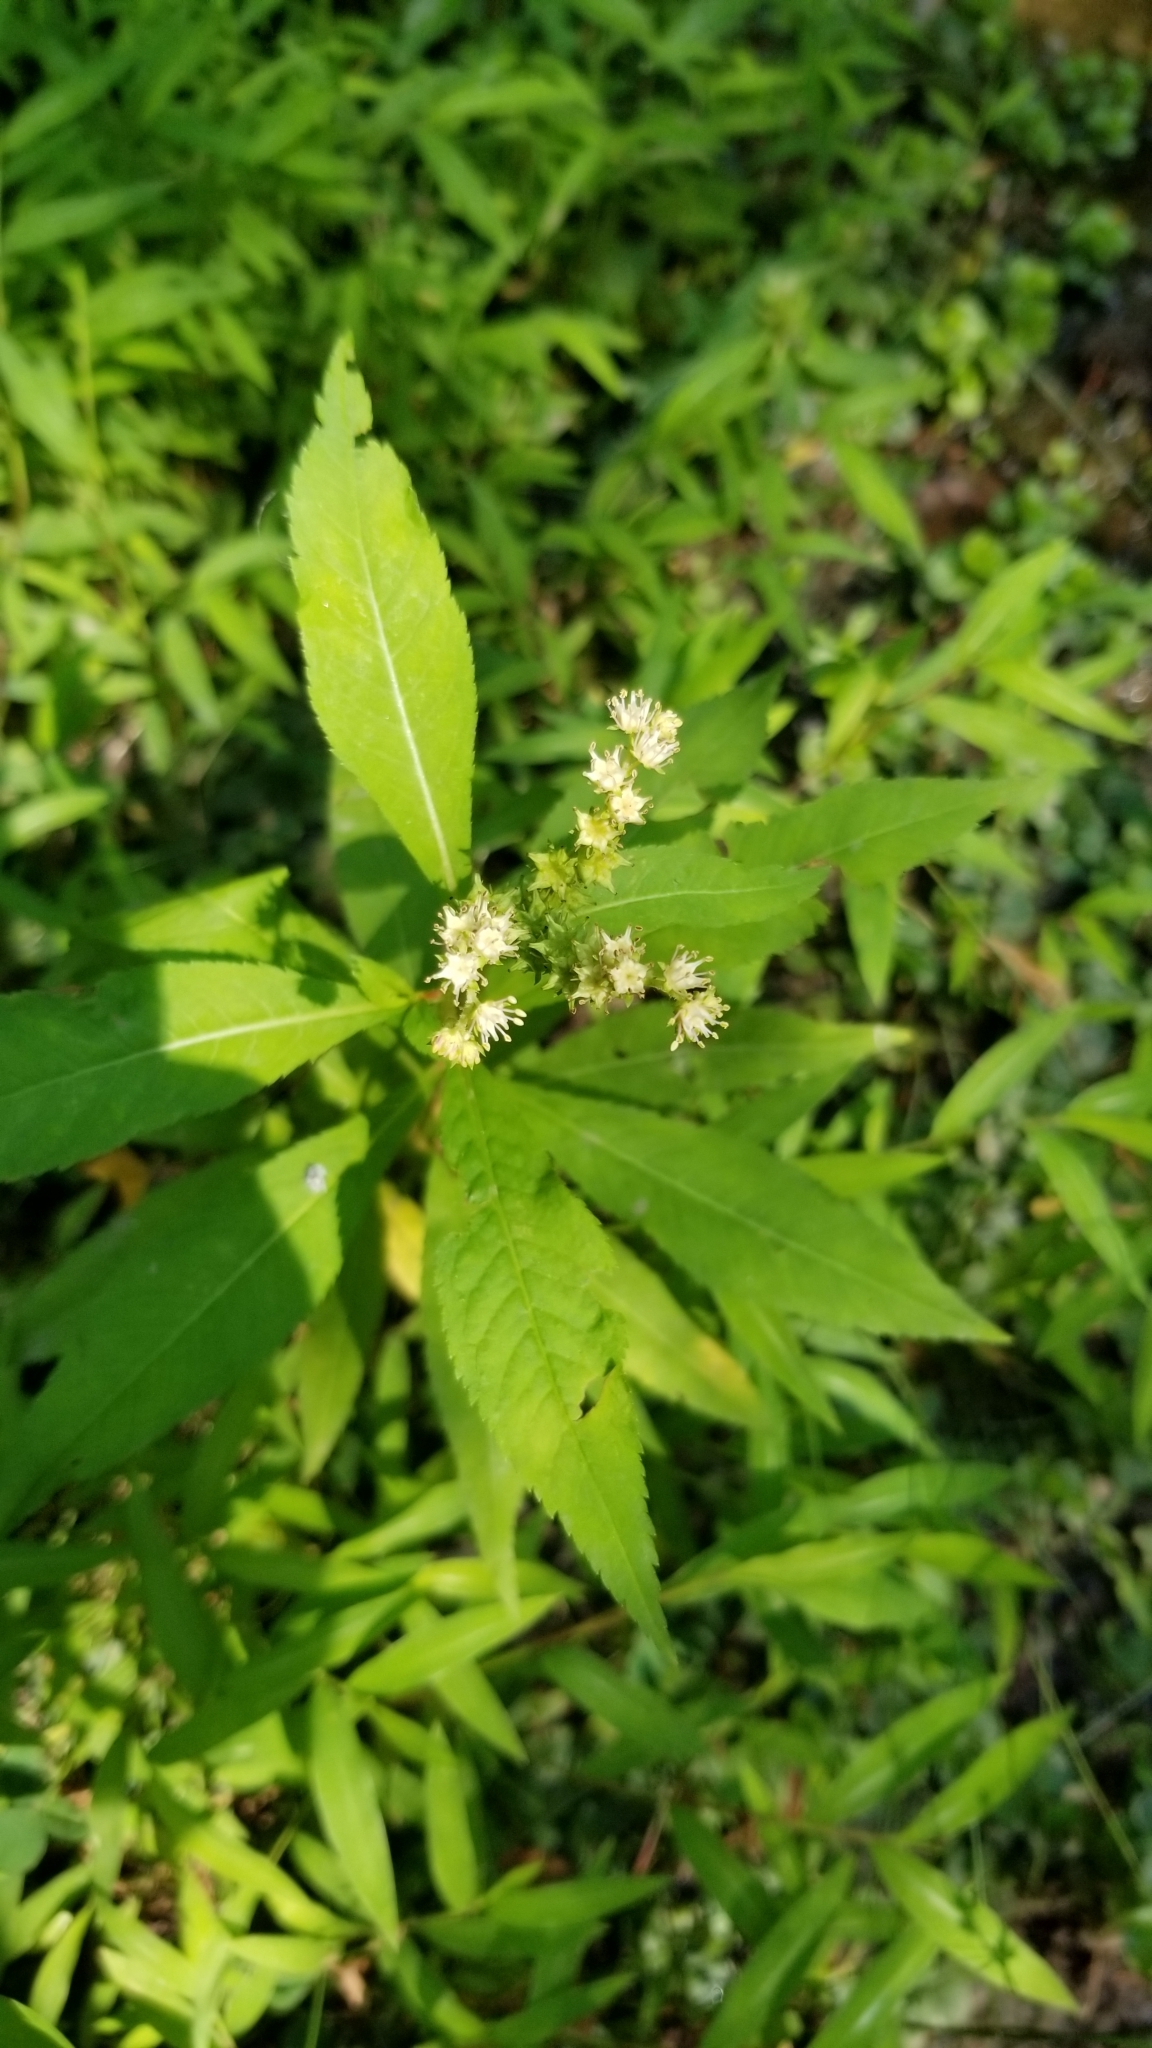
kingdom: Plantae
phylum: Tracheophyta
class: Magnoliopsida
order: Saxifragales
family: Penthoraceae
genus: Penthorum
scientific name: Penthorum sedoides
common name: Ditch stonecrop
